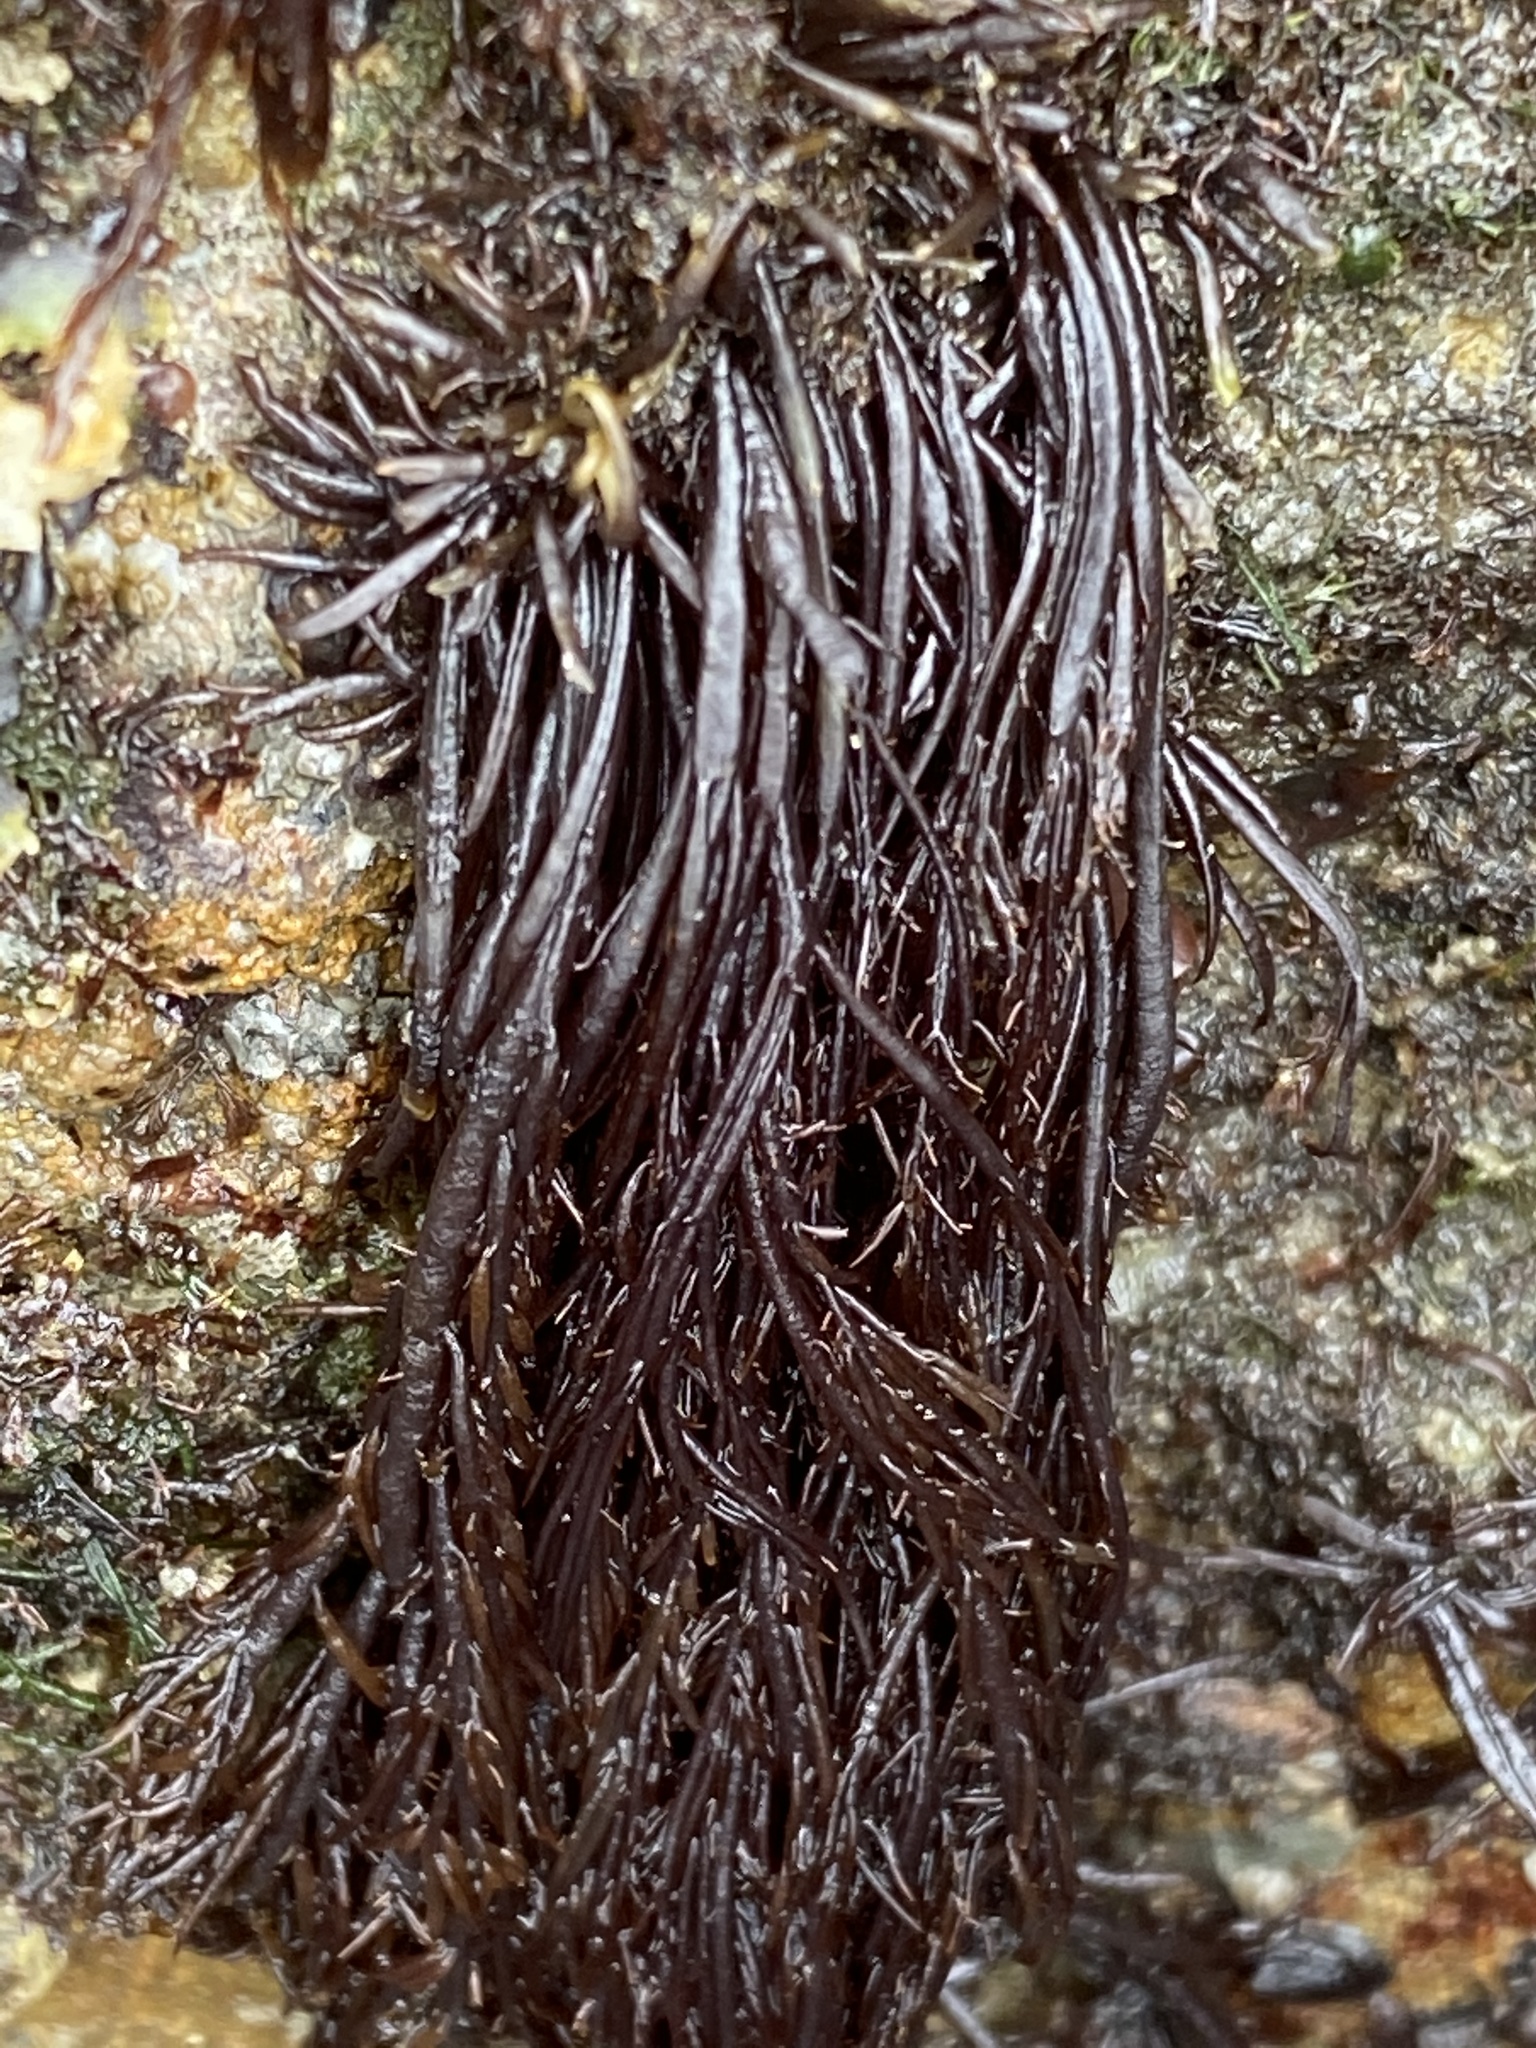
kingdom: Plantae
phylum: Rhodophyta
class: Florideophyceae
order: Gigartinales
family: Dumontiaceae
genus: Cryptosiphonia
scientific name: Cryptosiphonia woodii
